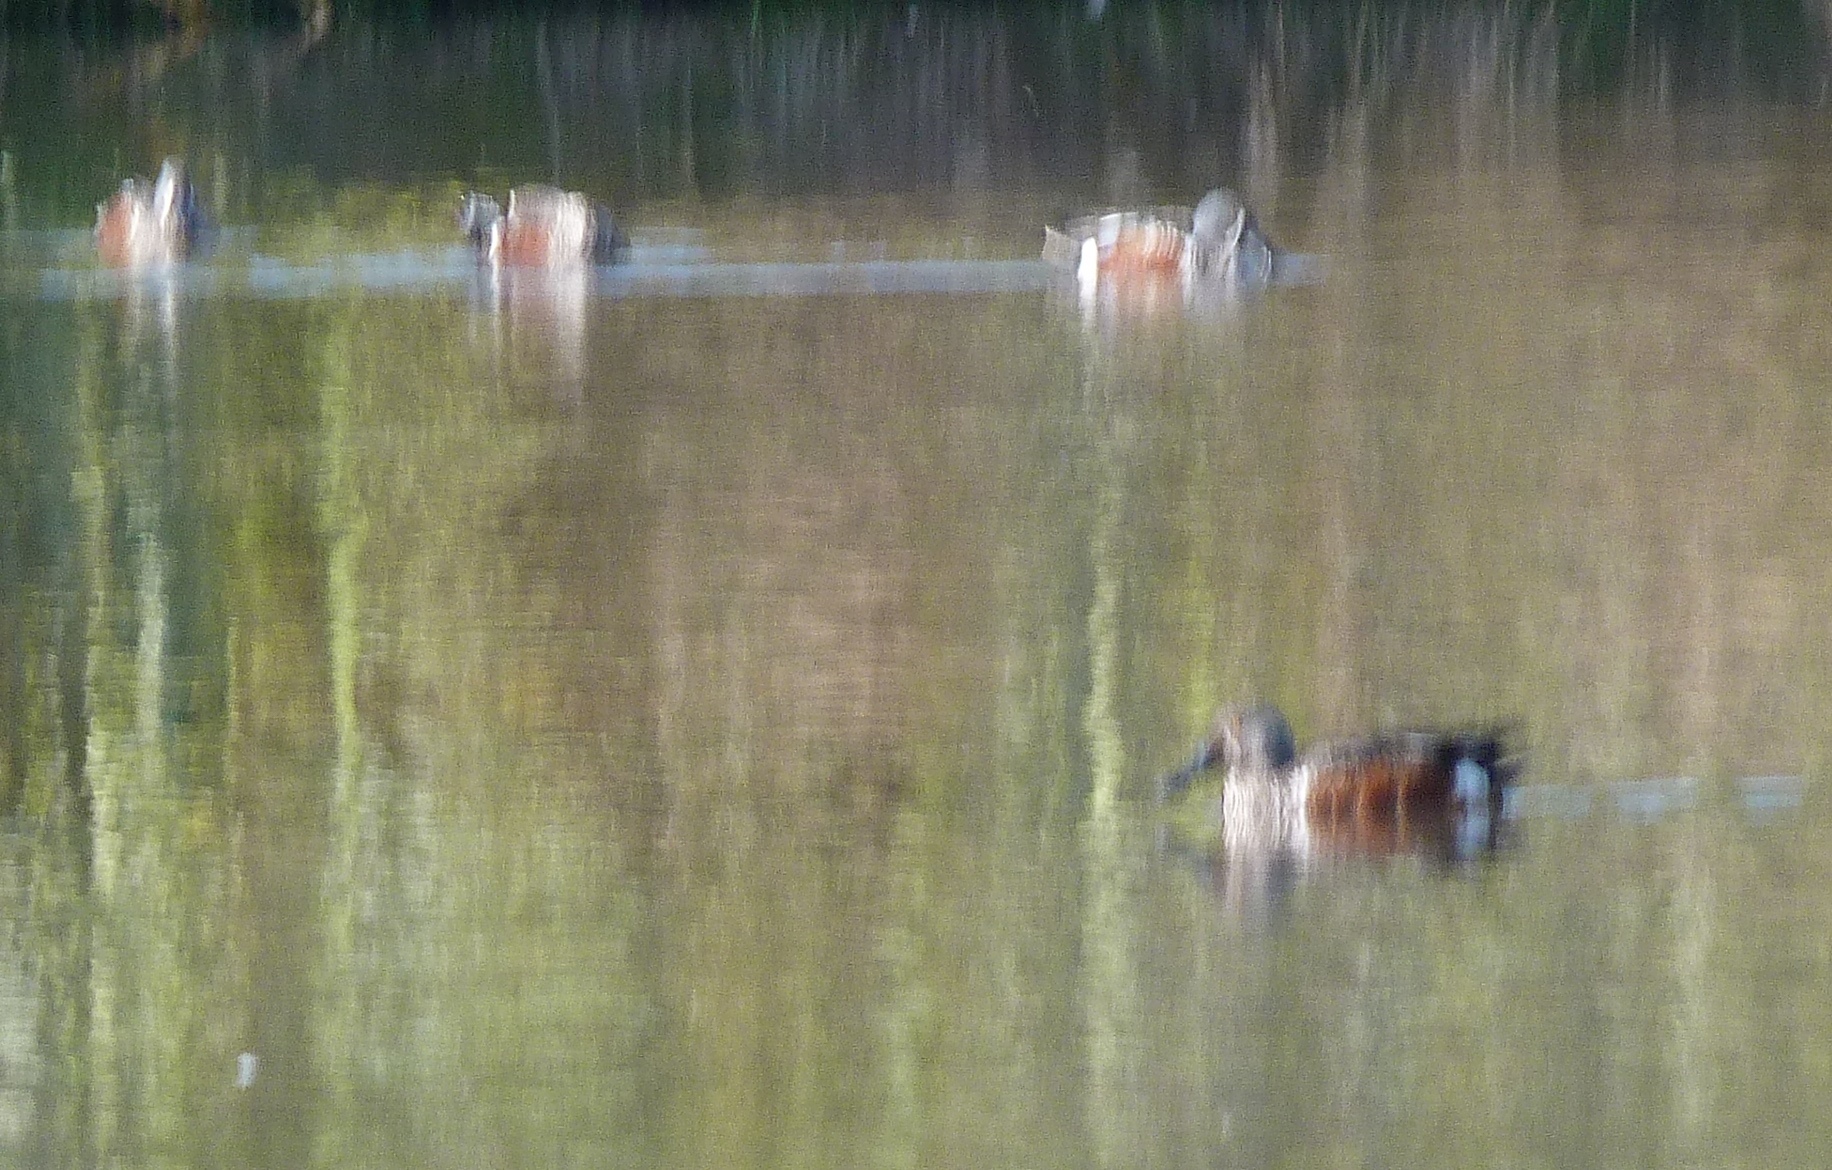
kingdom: Animalia
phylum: Chordata
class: Aves
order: Anseriformes
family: Anatidae
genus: Spatula
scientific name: Spatula rhynchotis
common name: Australian shoveler
